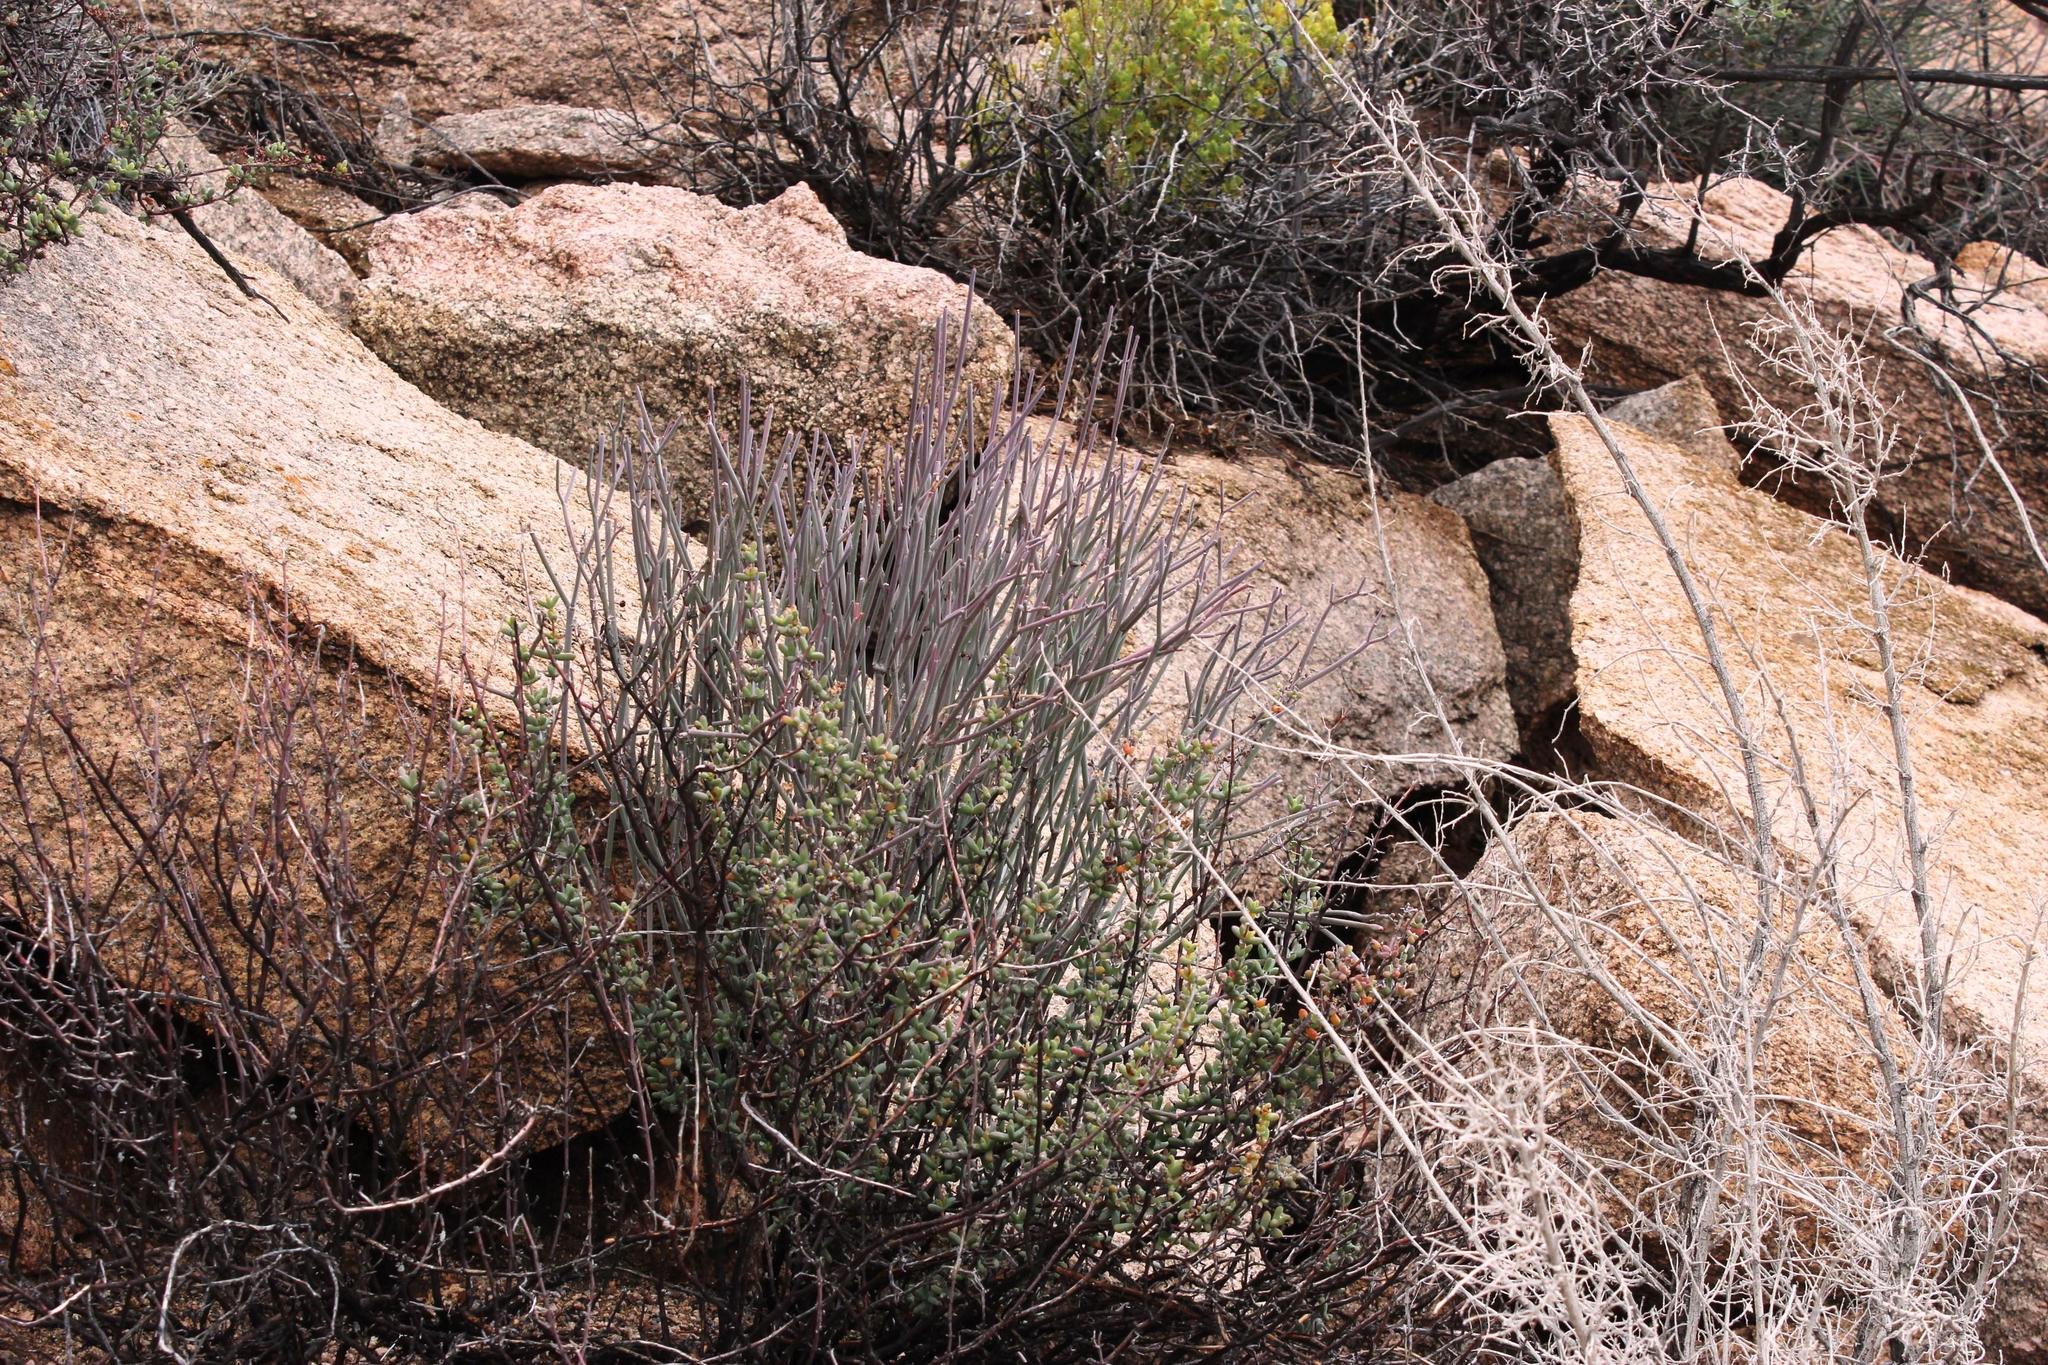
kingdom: Plantae
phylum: Tracheophyta
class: Magnoliopsida
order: Gentianales
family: Apocynaceae
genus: Cynanchum
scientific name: Cynanchum viminale
